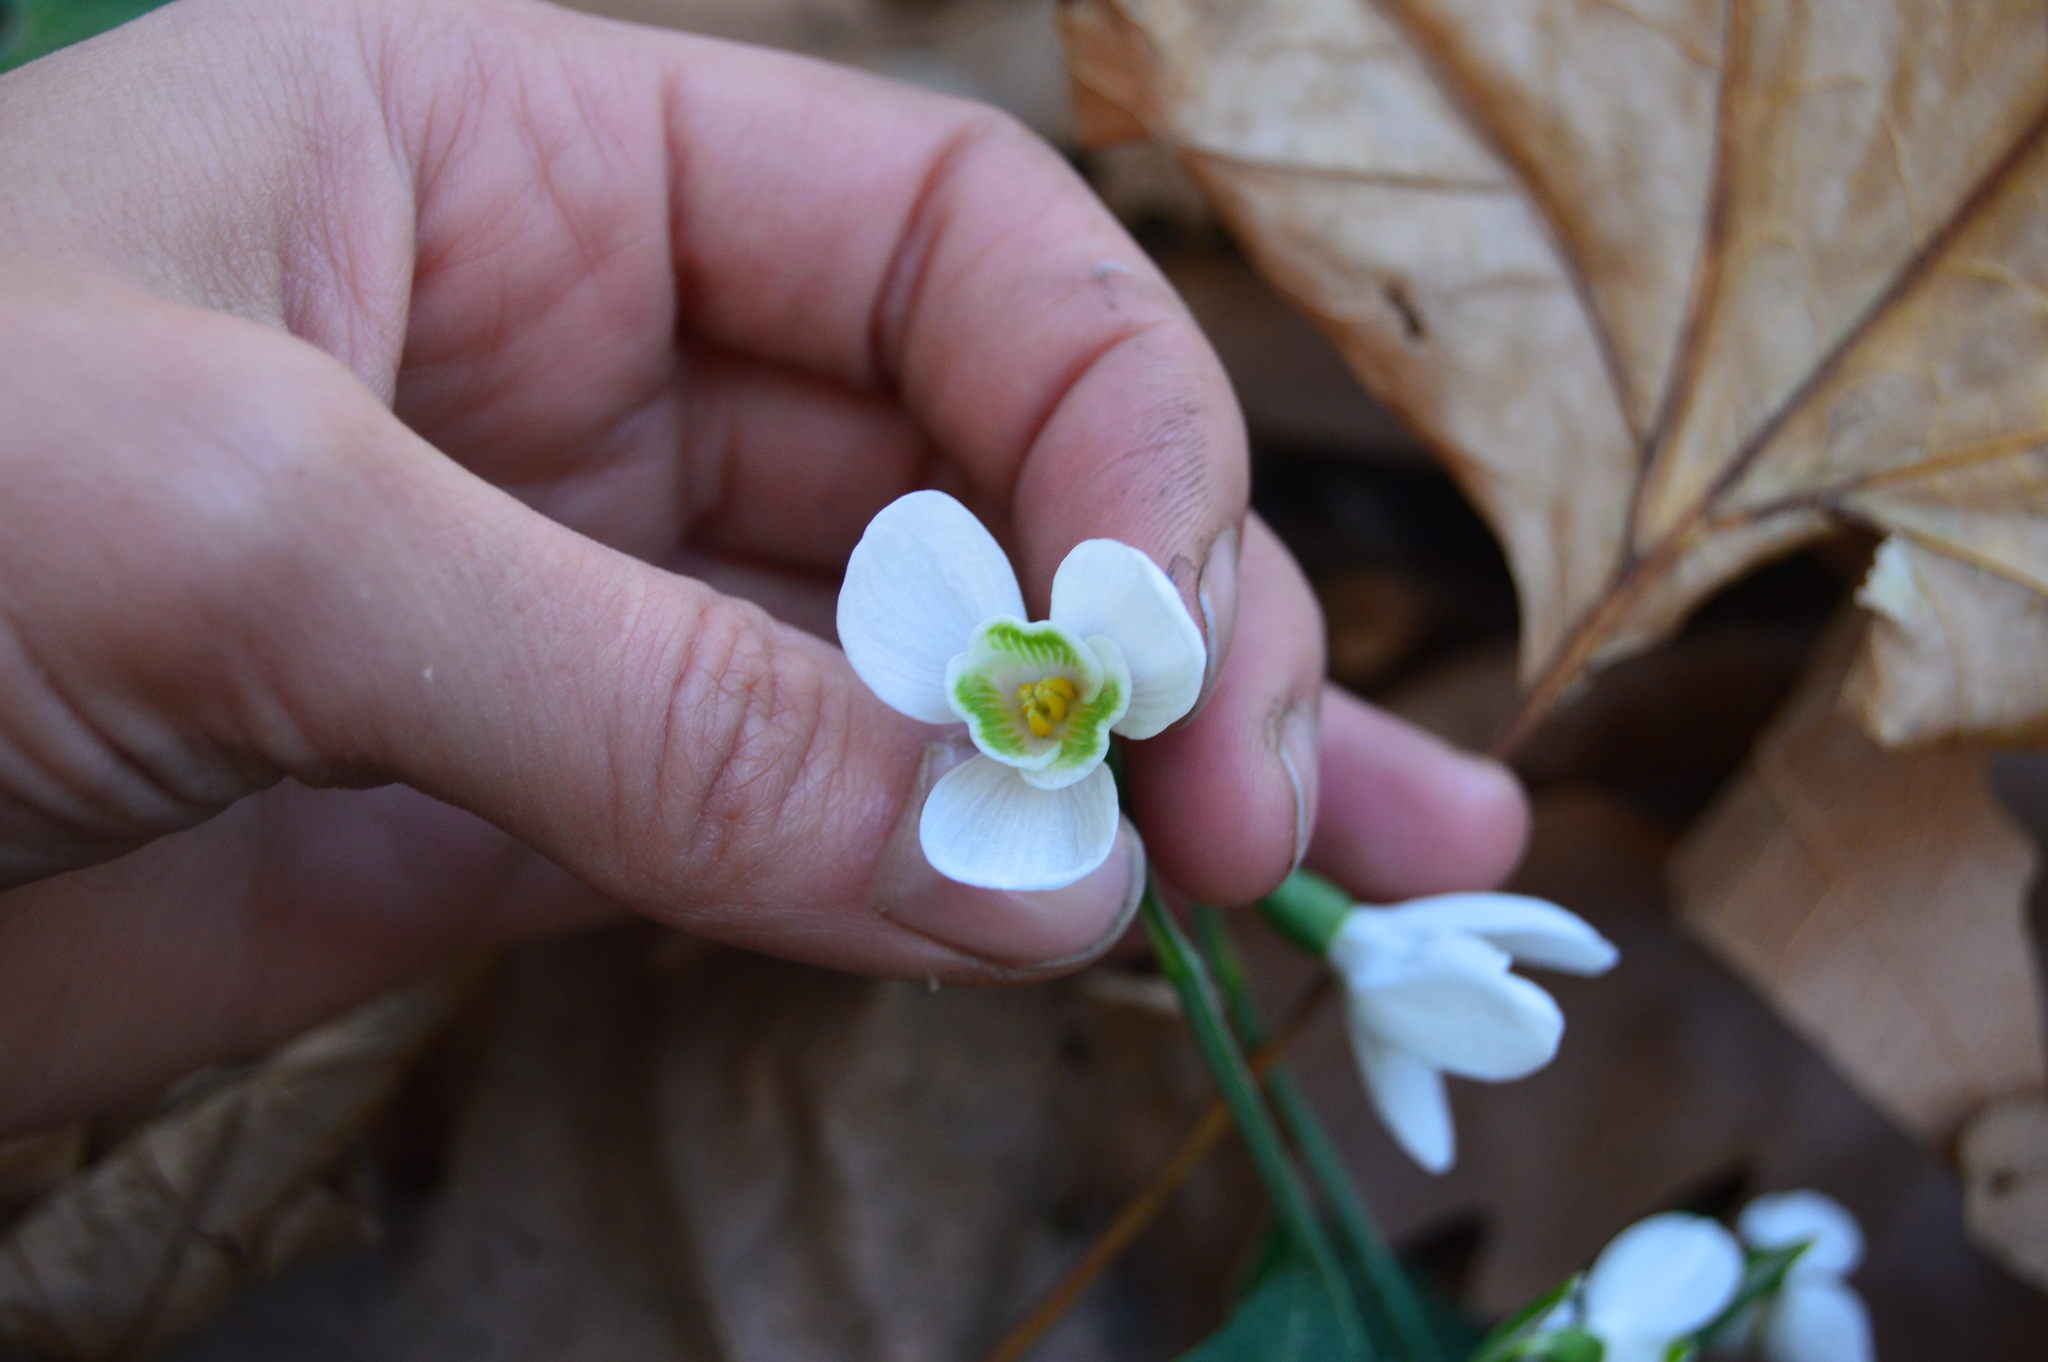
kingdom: Plantae
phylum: Tracheophyta
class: Liliopsida
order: Asparagales
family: Amaryllidaceae
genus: Galanthus
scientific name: Galanthus peshmenii
